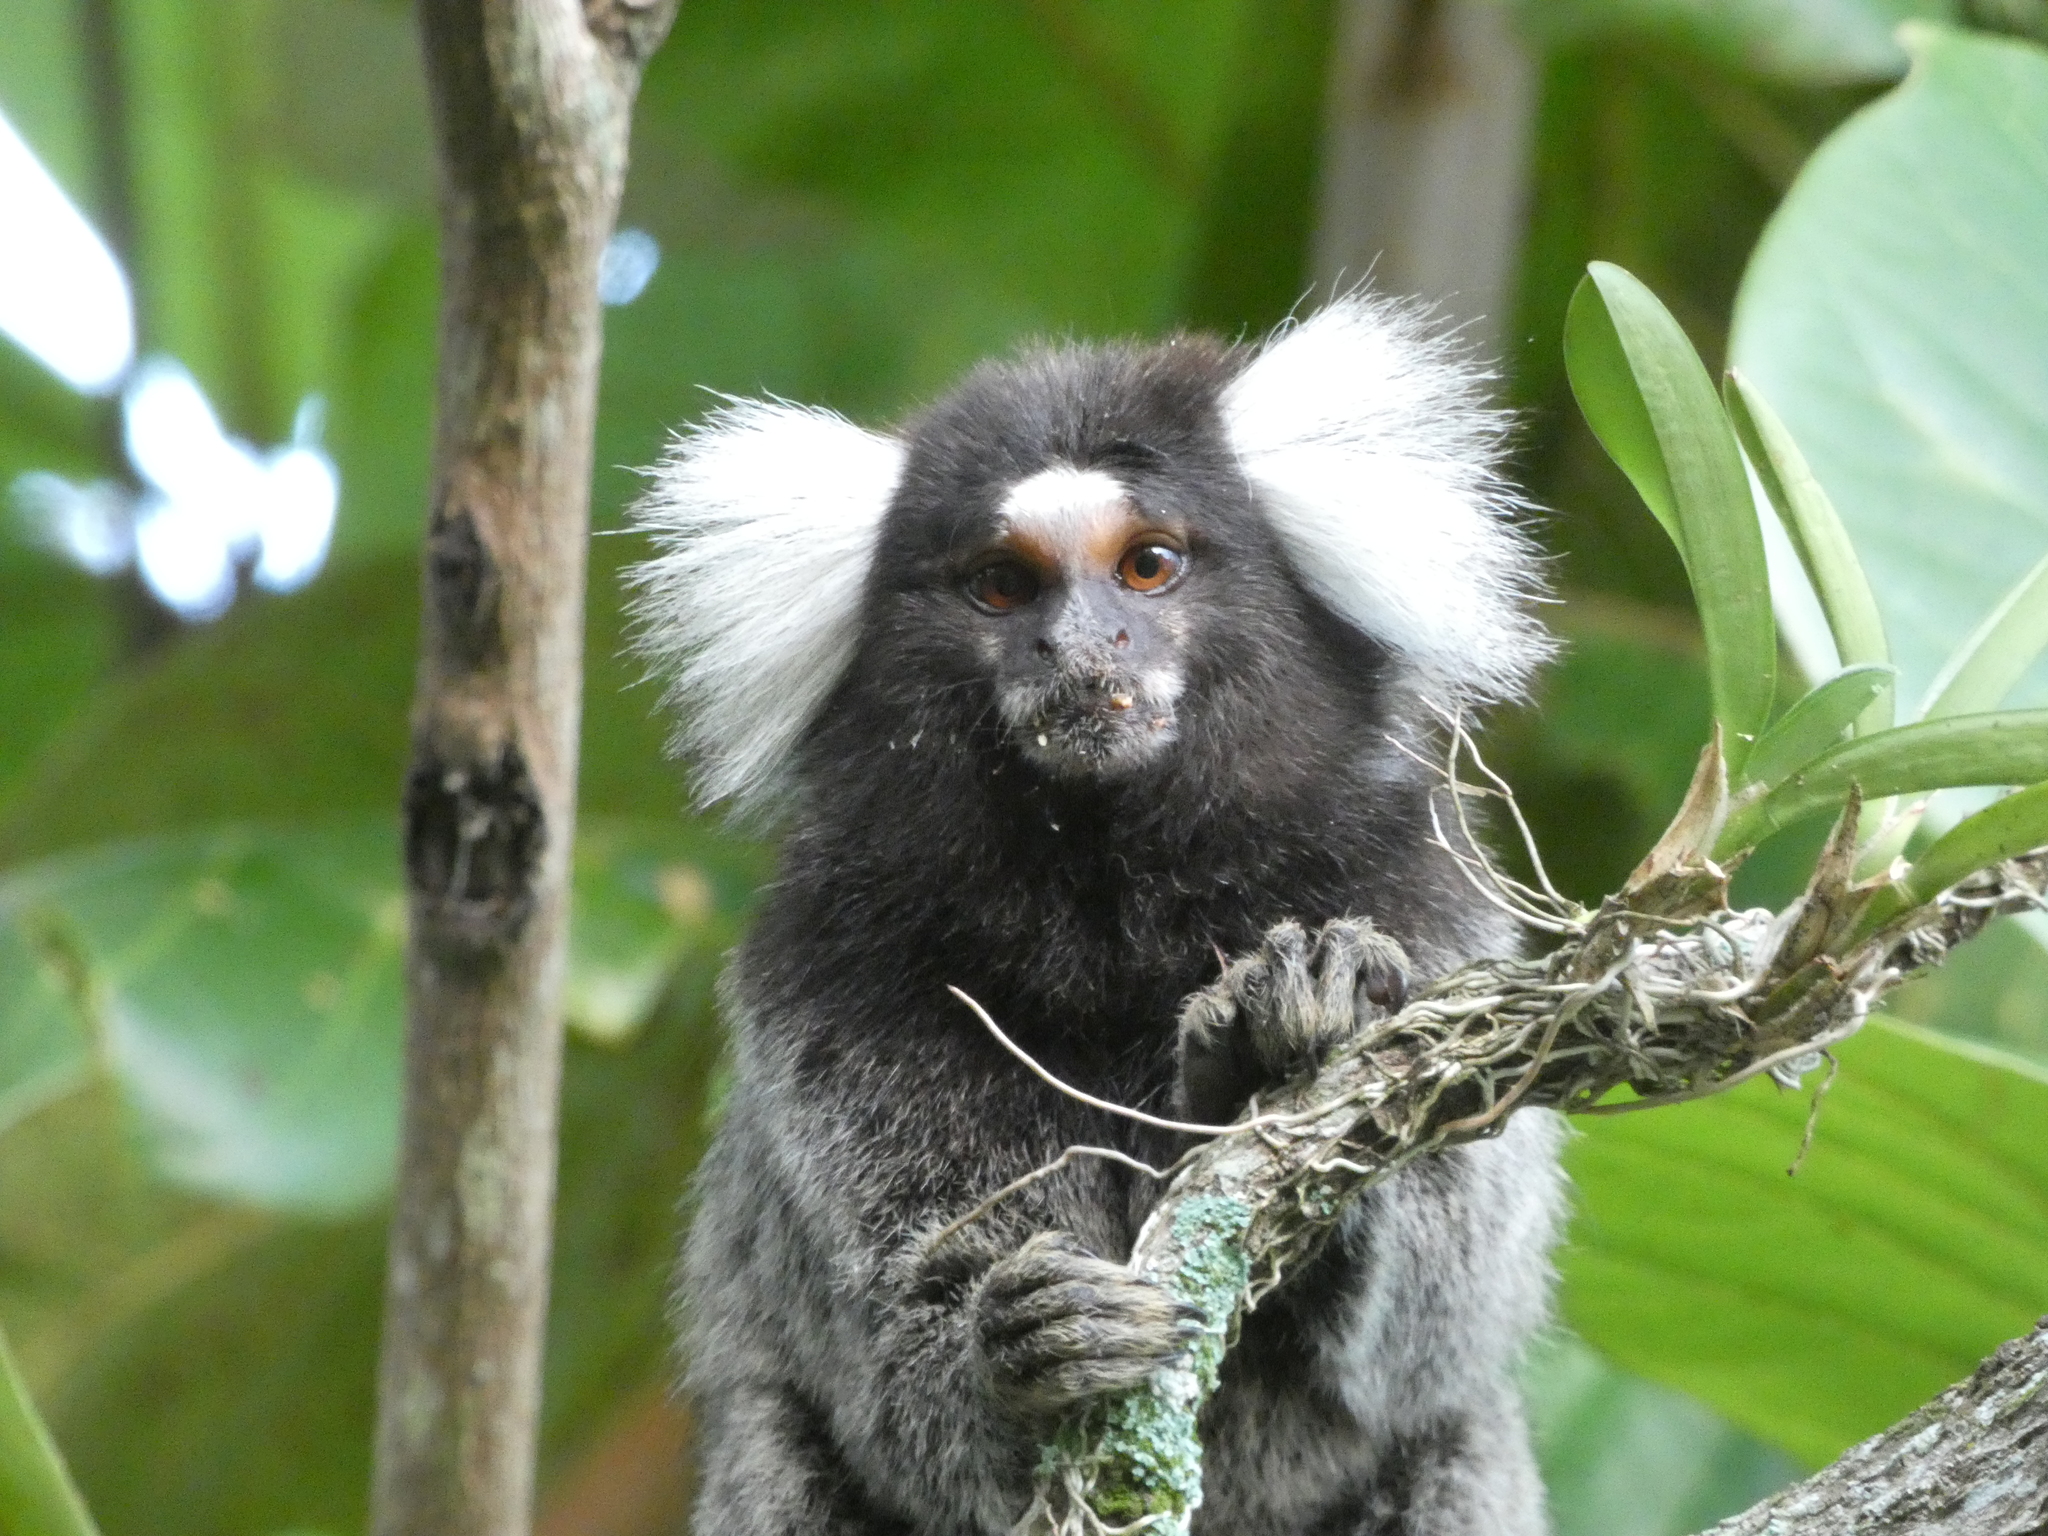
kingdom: Animalia
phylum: Chordata
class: Mammalia
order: Primates
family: Callitrichidae
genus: Callithrix
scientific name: Callithrix jacchus
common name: Common marmoset
